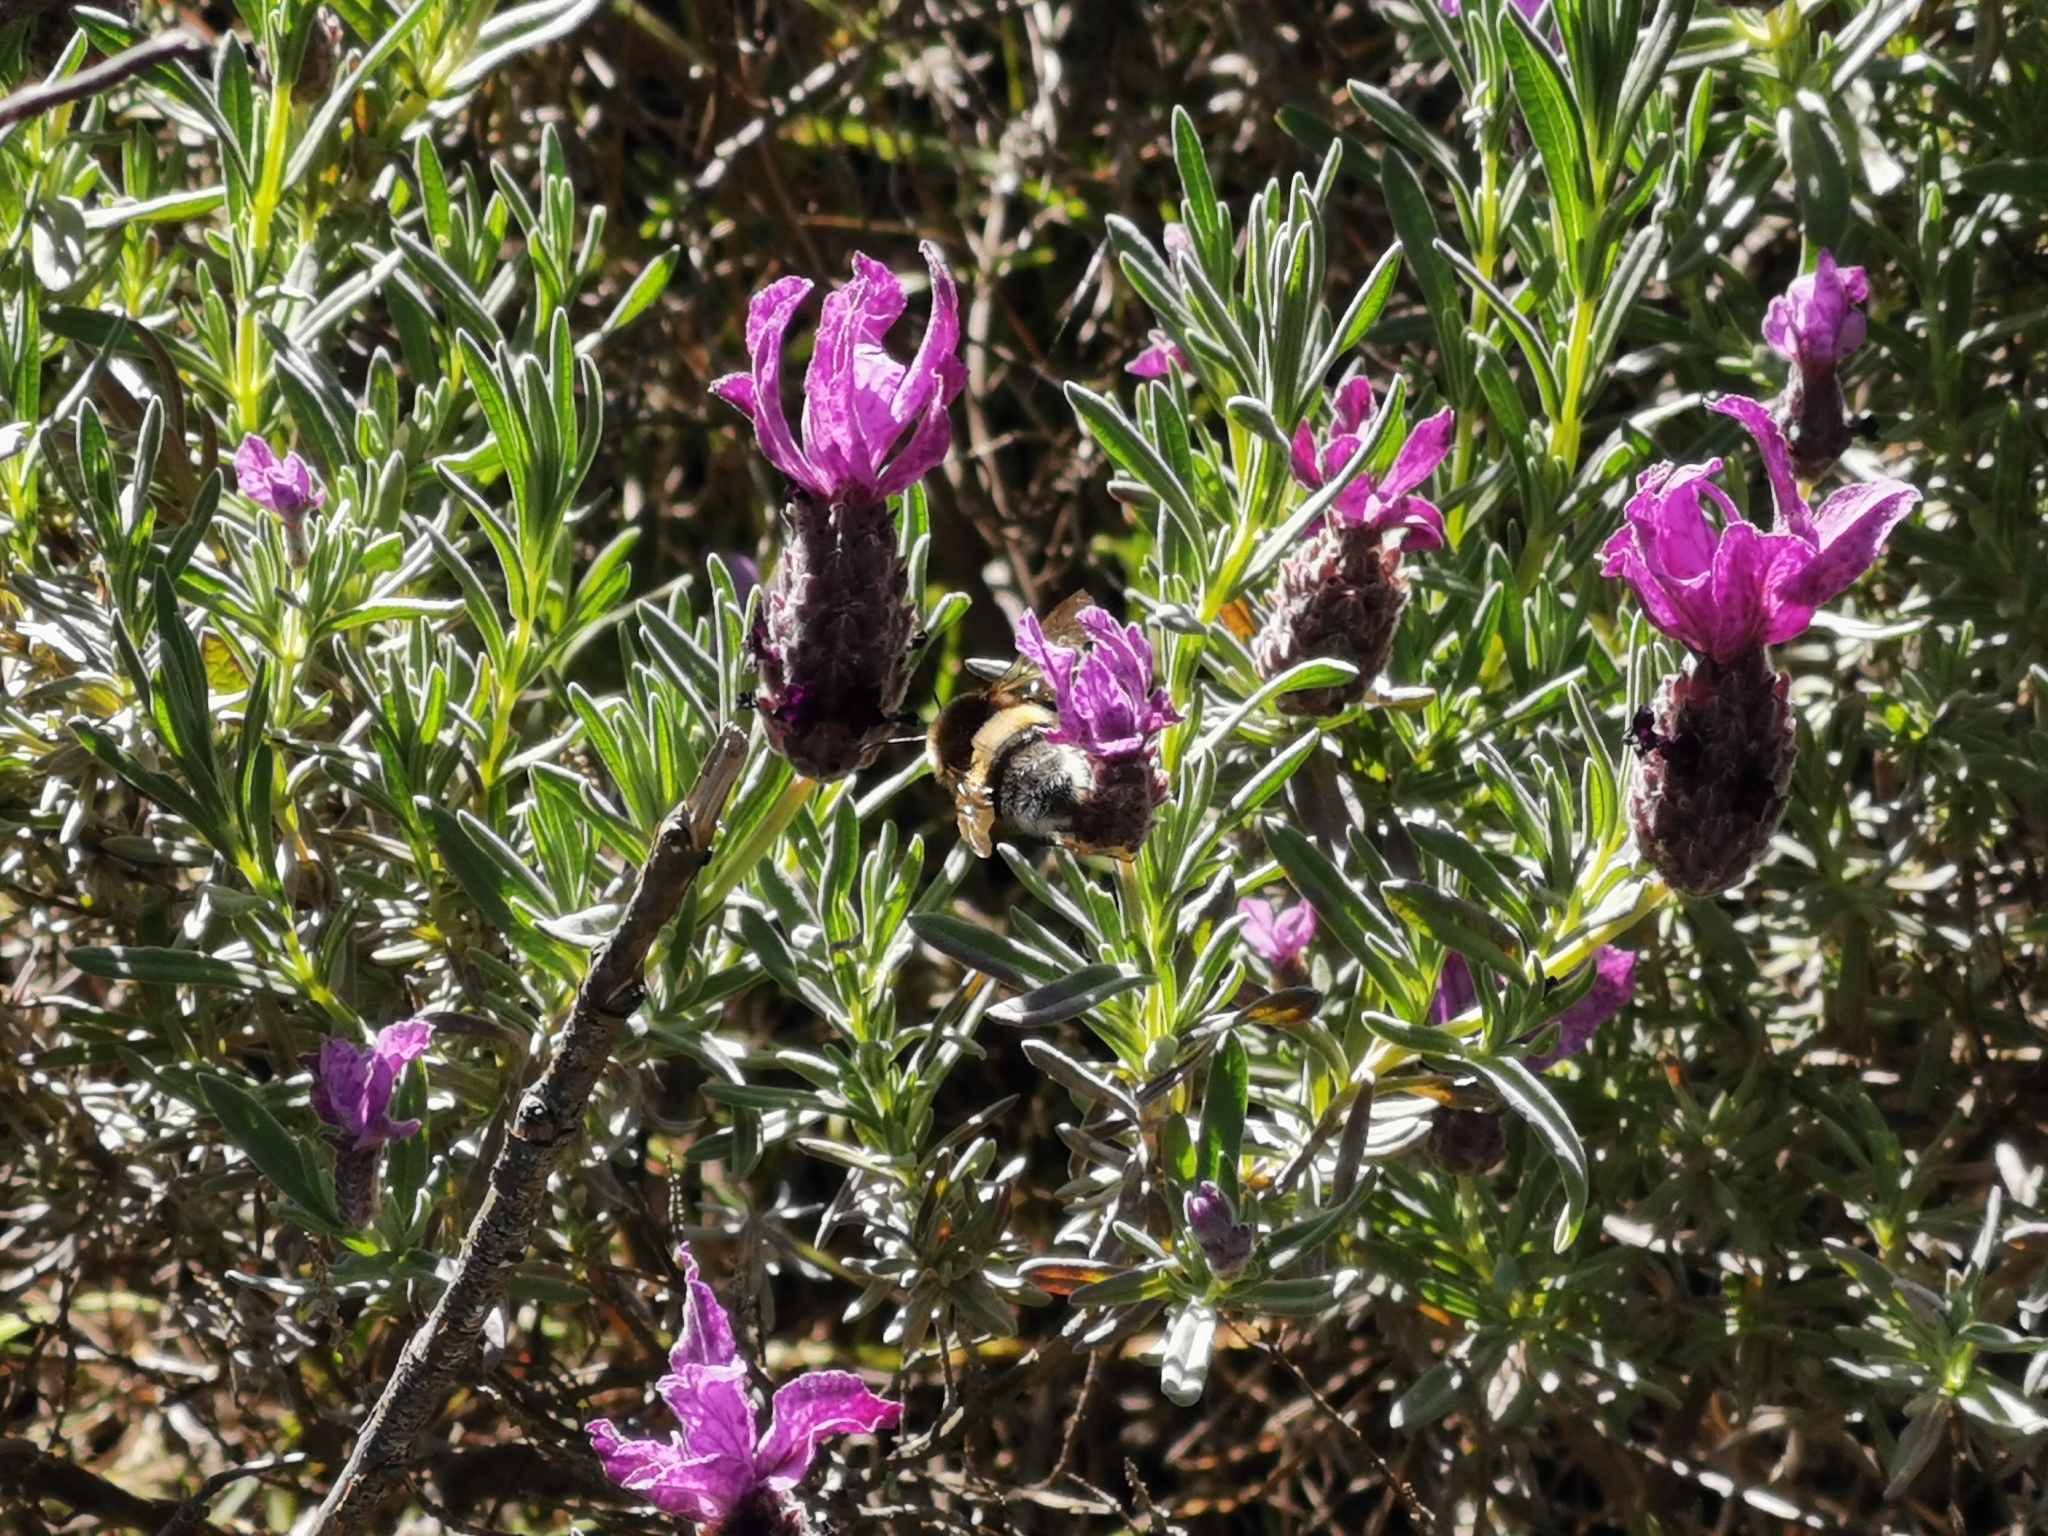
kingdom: Plantae
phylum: Tracheophyta
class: Magnoliopsida
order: Lamiales
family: Lamiaceae
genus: Lavandula
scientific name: Lavandula stoechas
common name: French lavender
